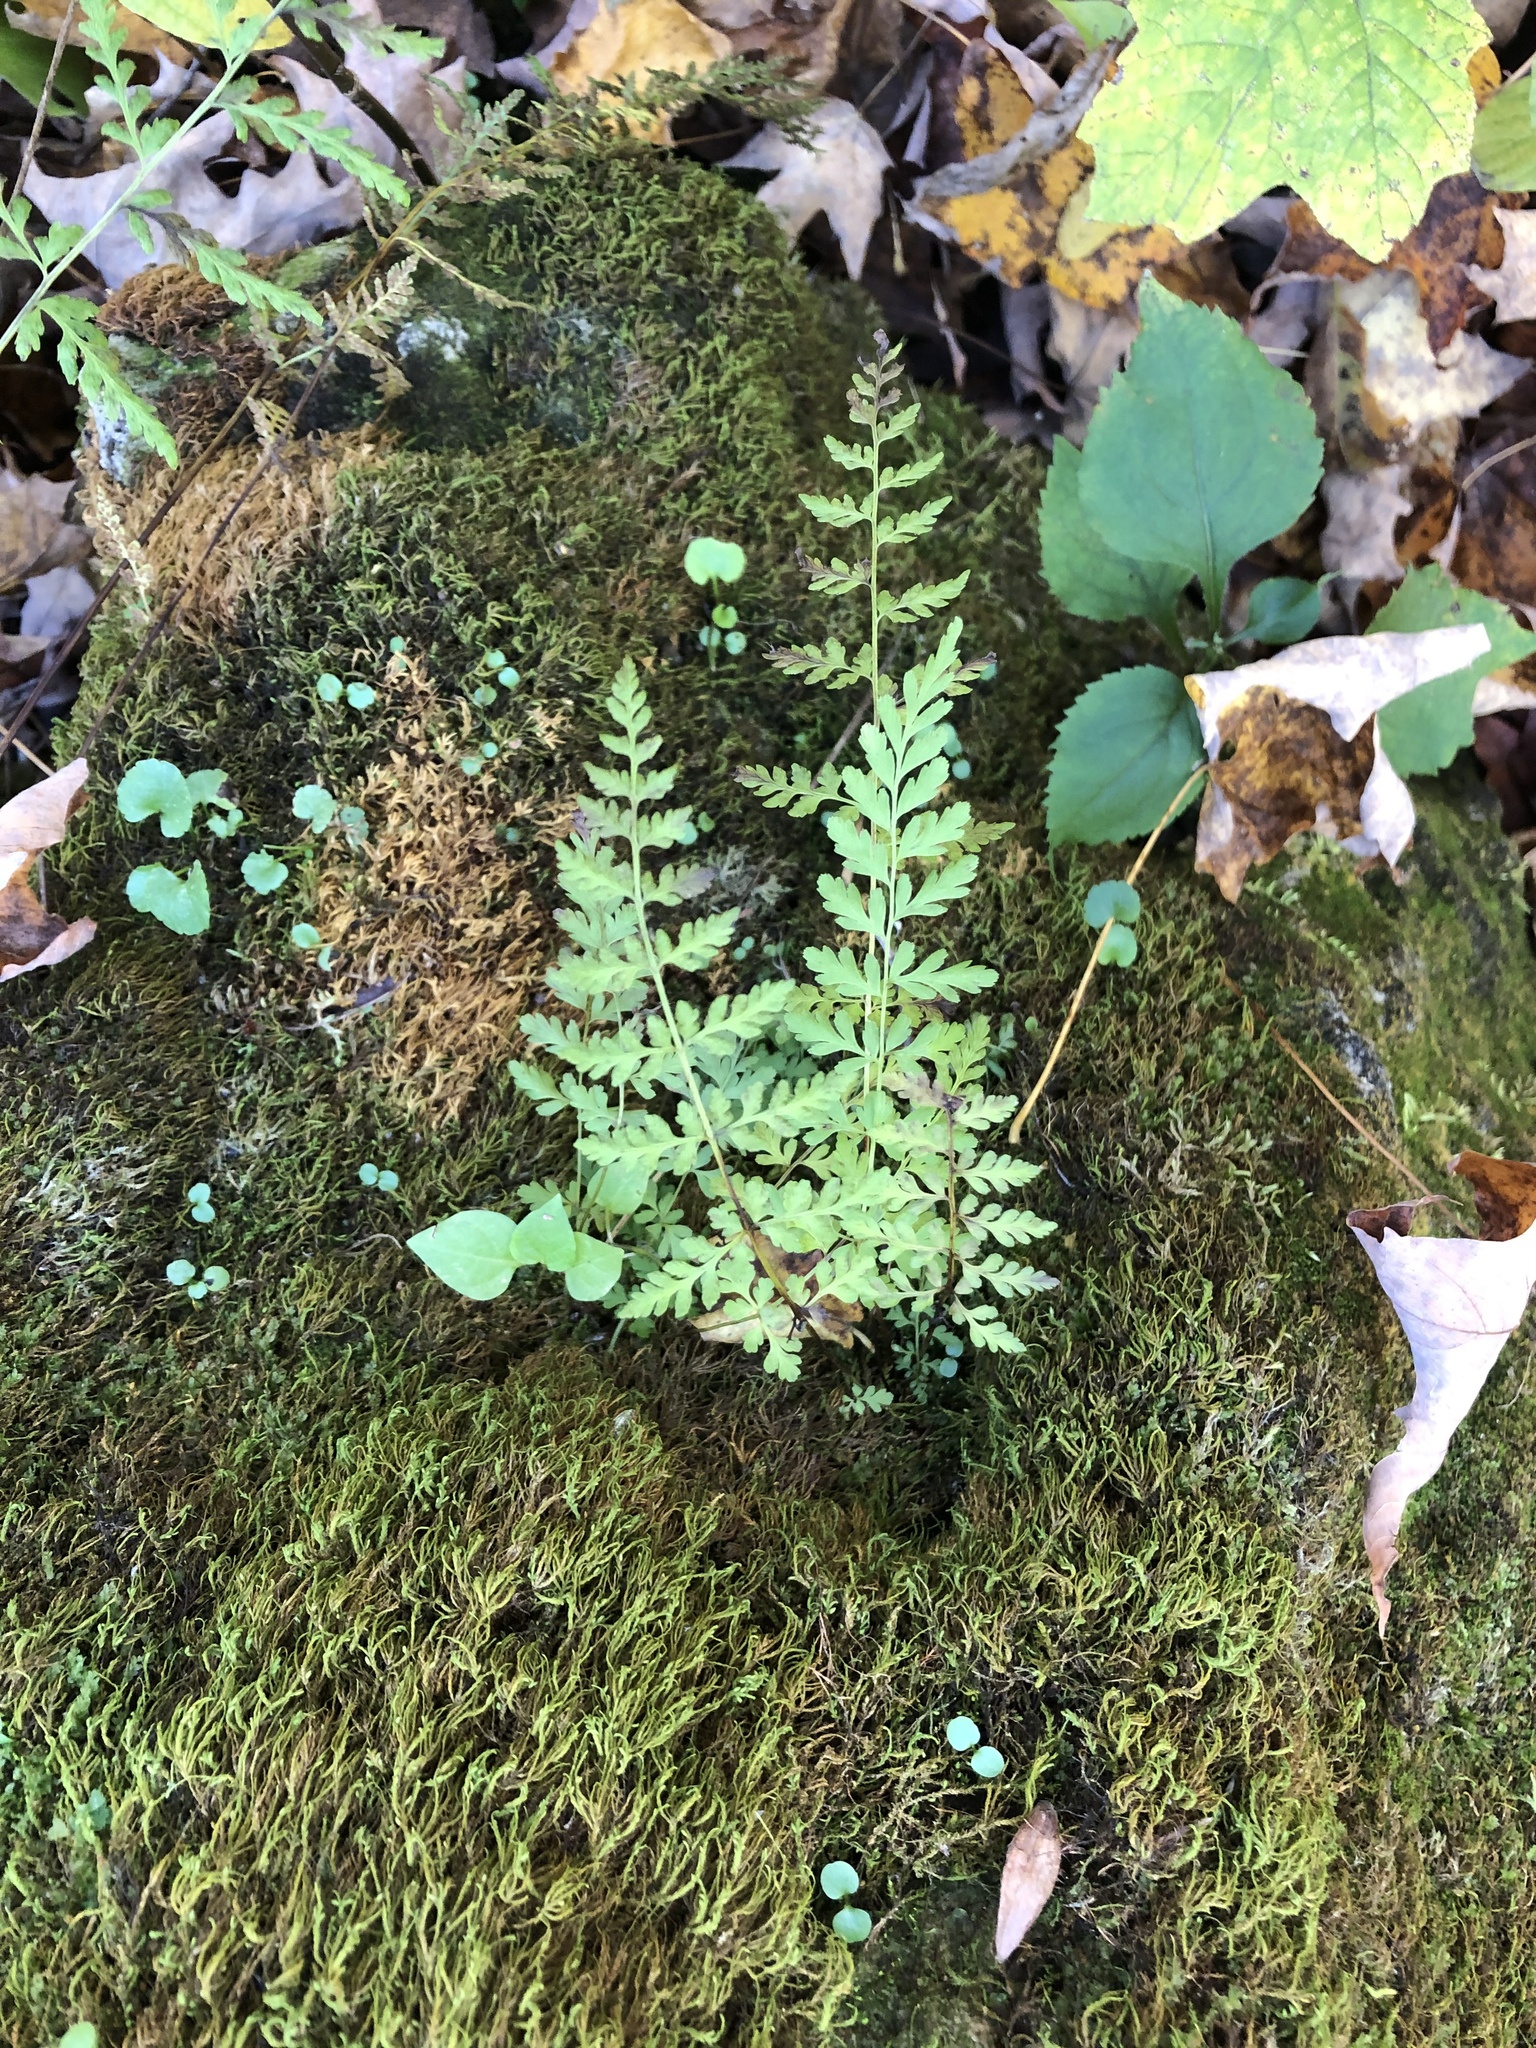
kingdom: Plantae
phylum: Tracheophyta
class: Polypodiopsida
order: Polypodiales
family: Cystopteridaceae
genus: Cystopteris
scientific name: Cystopteris fragilis
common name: Brittle bladder fern
